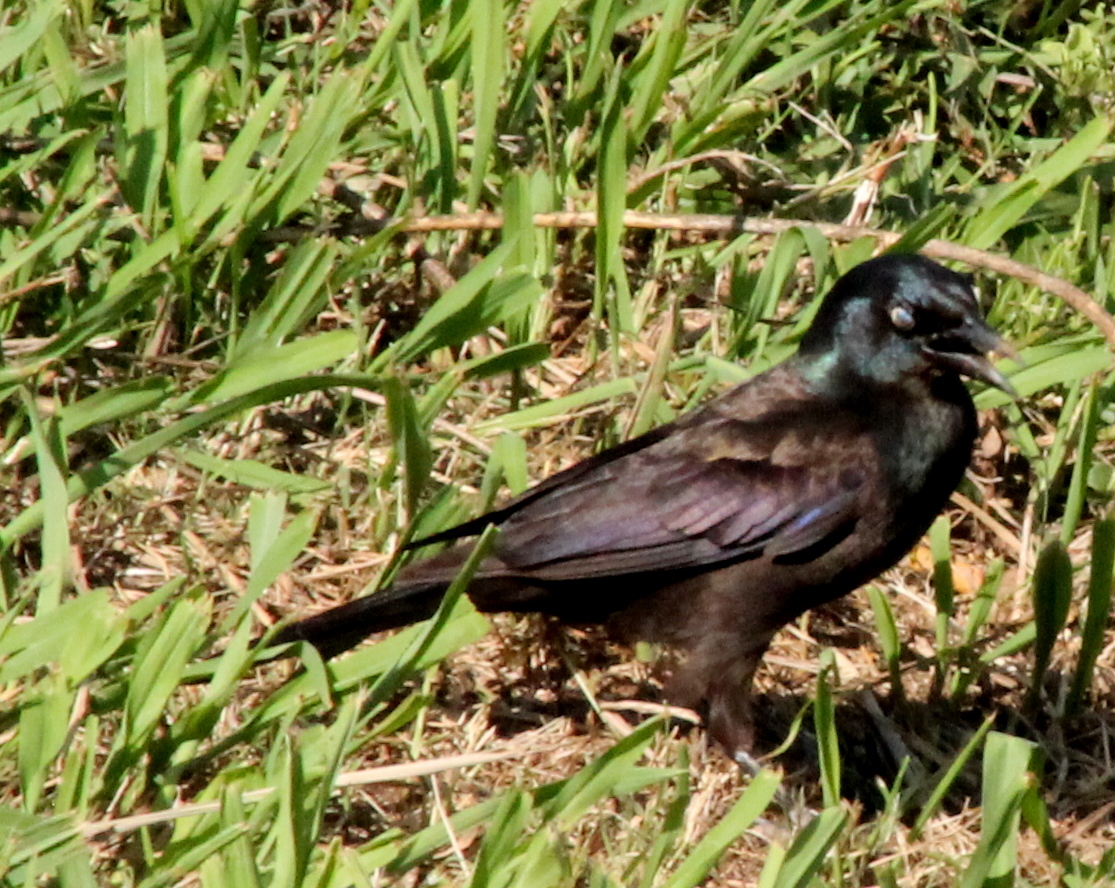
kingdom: Animalia
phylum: Chordata
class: Aves
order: Passeriformes
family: Icteridae
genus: Quiscalus
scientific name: Quiscalus quiscula
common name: Common grackle
